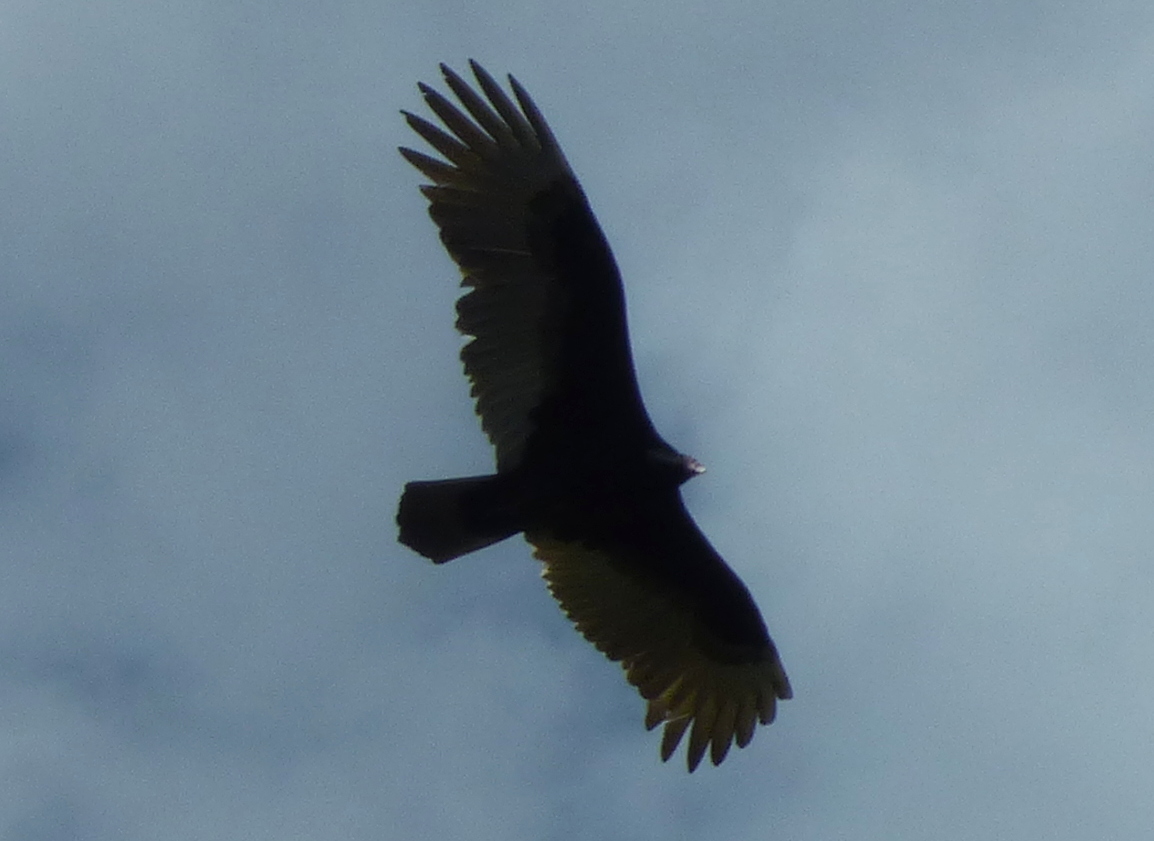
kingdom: Animalia
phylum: Chordata
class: Aves
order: Accipitriformes
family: Cathartidae
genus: Cathartes
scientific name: Cathartes aura
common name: Turkey vulture
